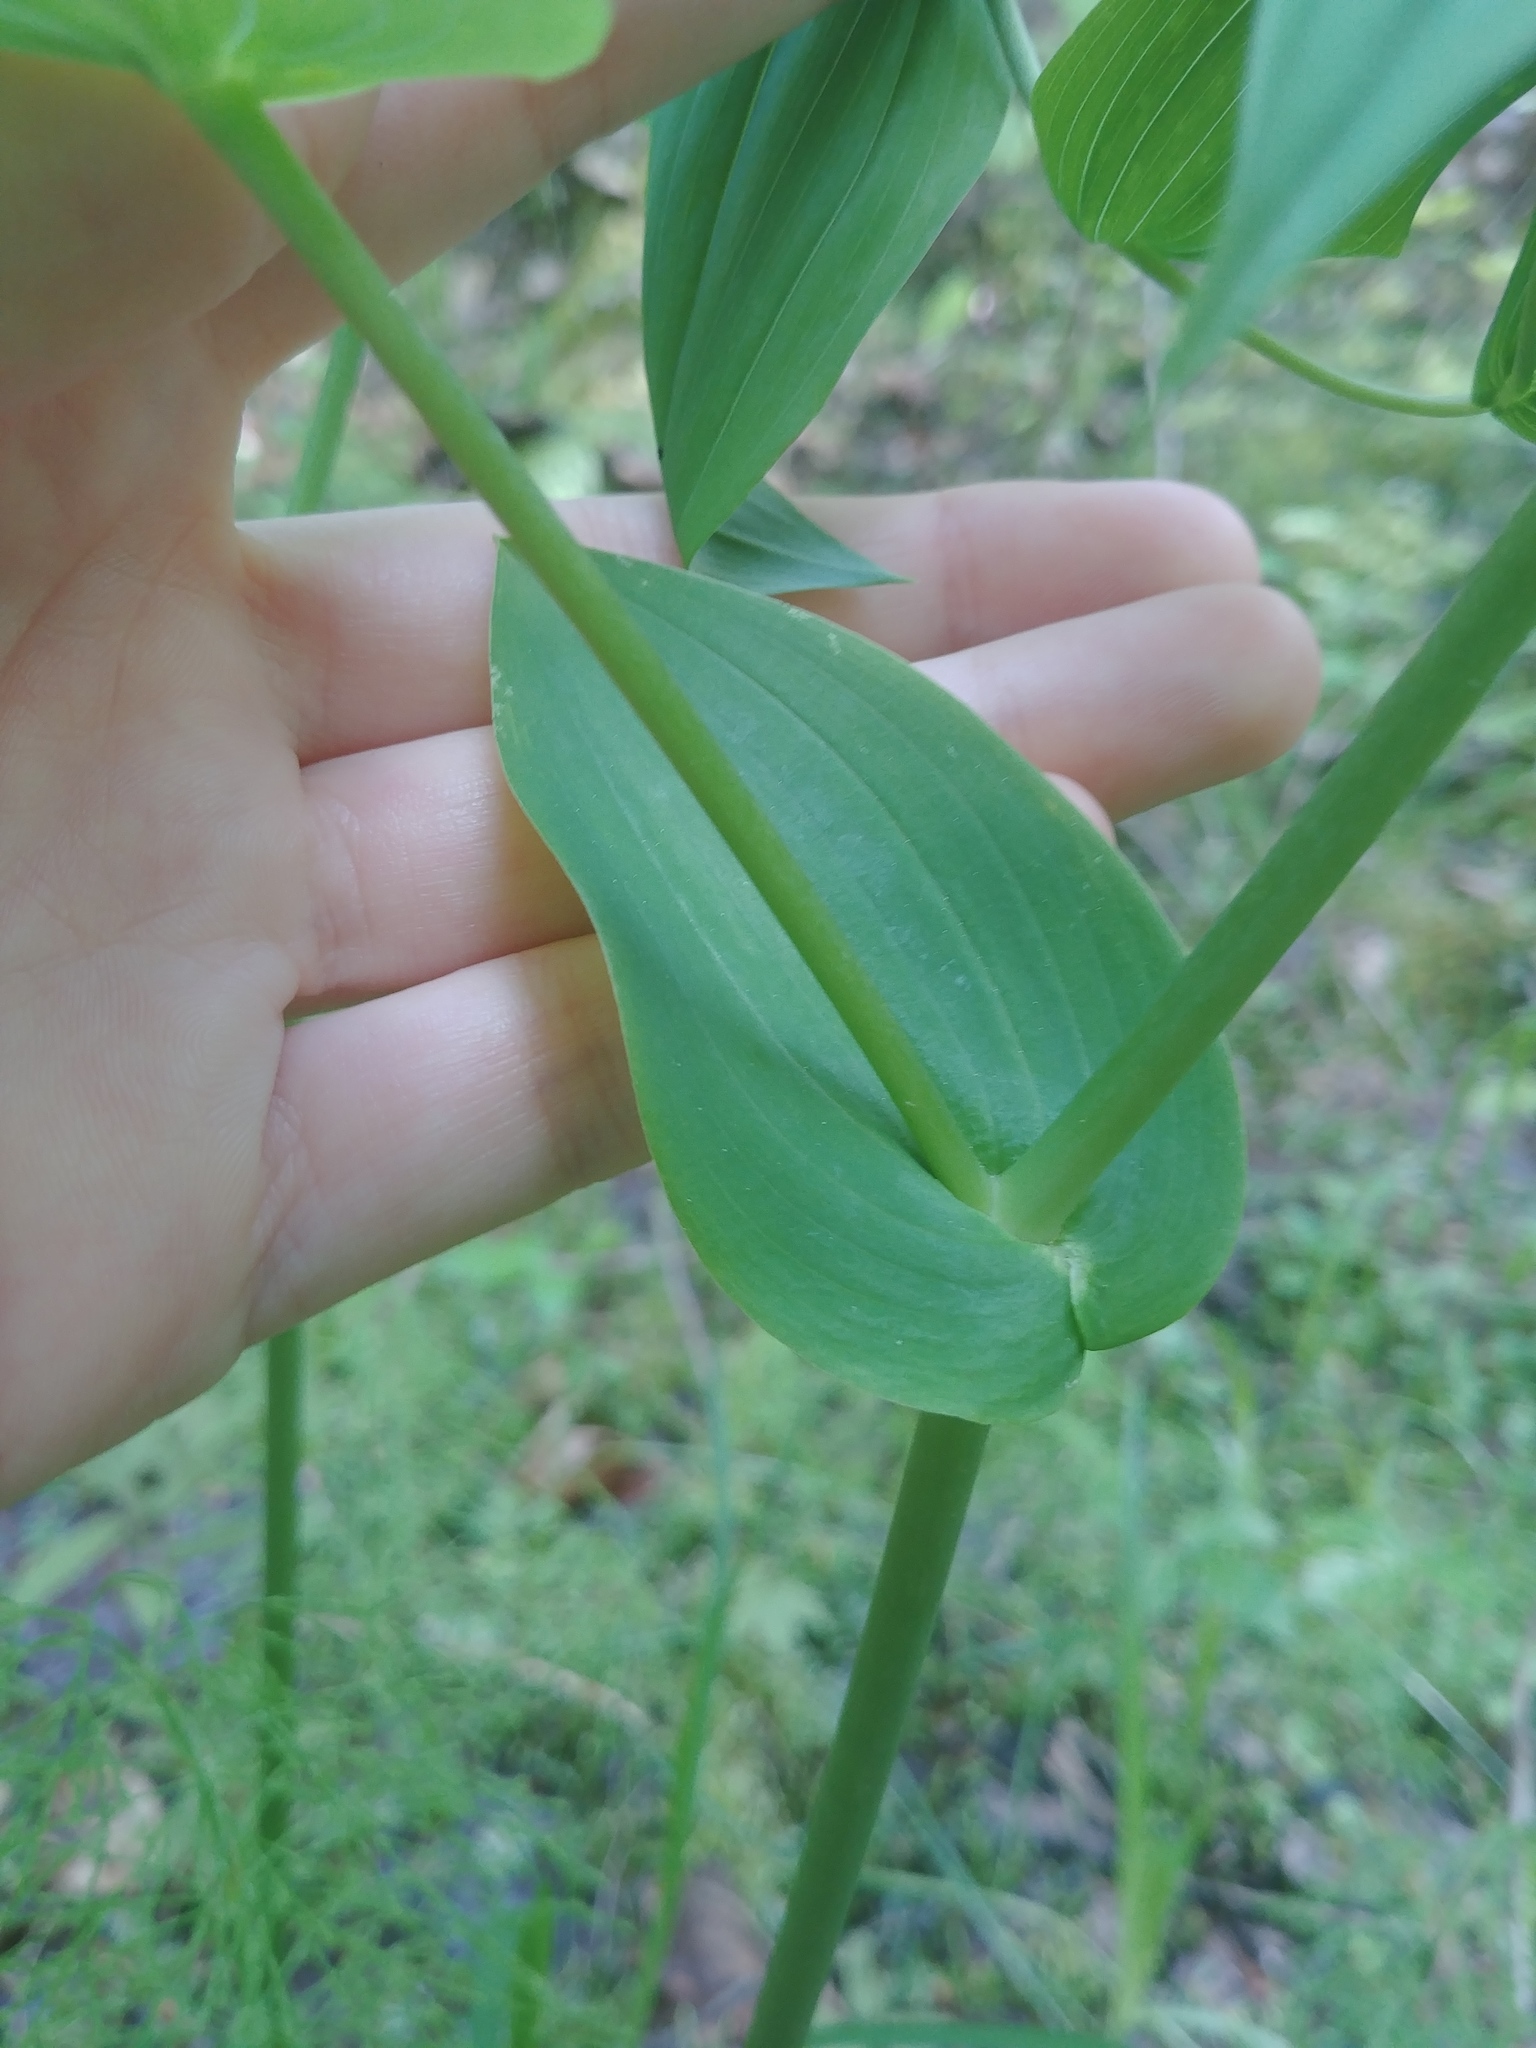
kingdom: Plantae
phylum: Tracheophyta
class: Liliopsida
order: Liliales
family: Liliaceae
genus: Streptopus
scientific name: Streptopus amplexifolius
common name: Clasp twisted stalk
